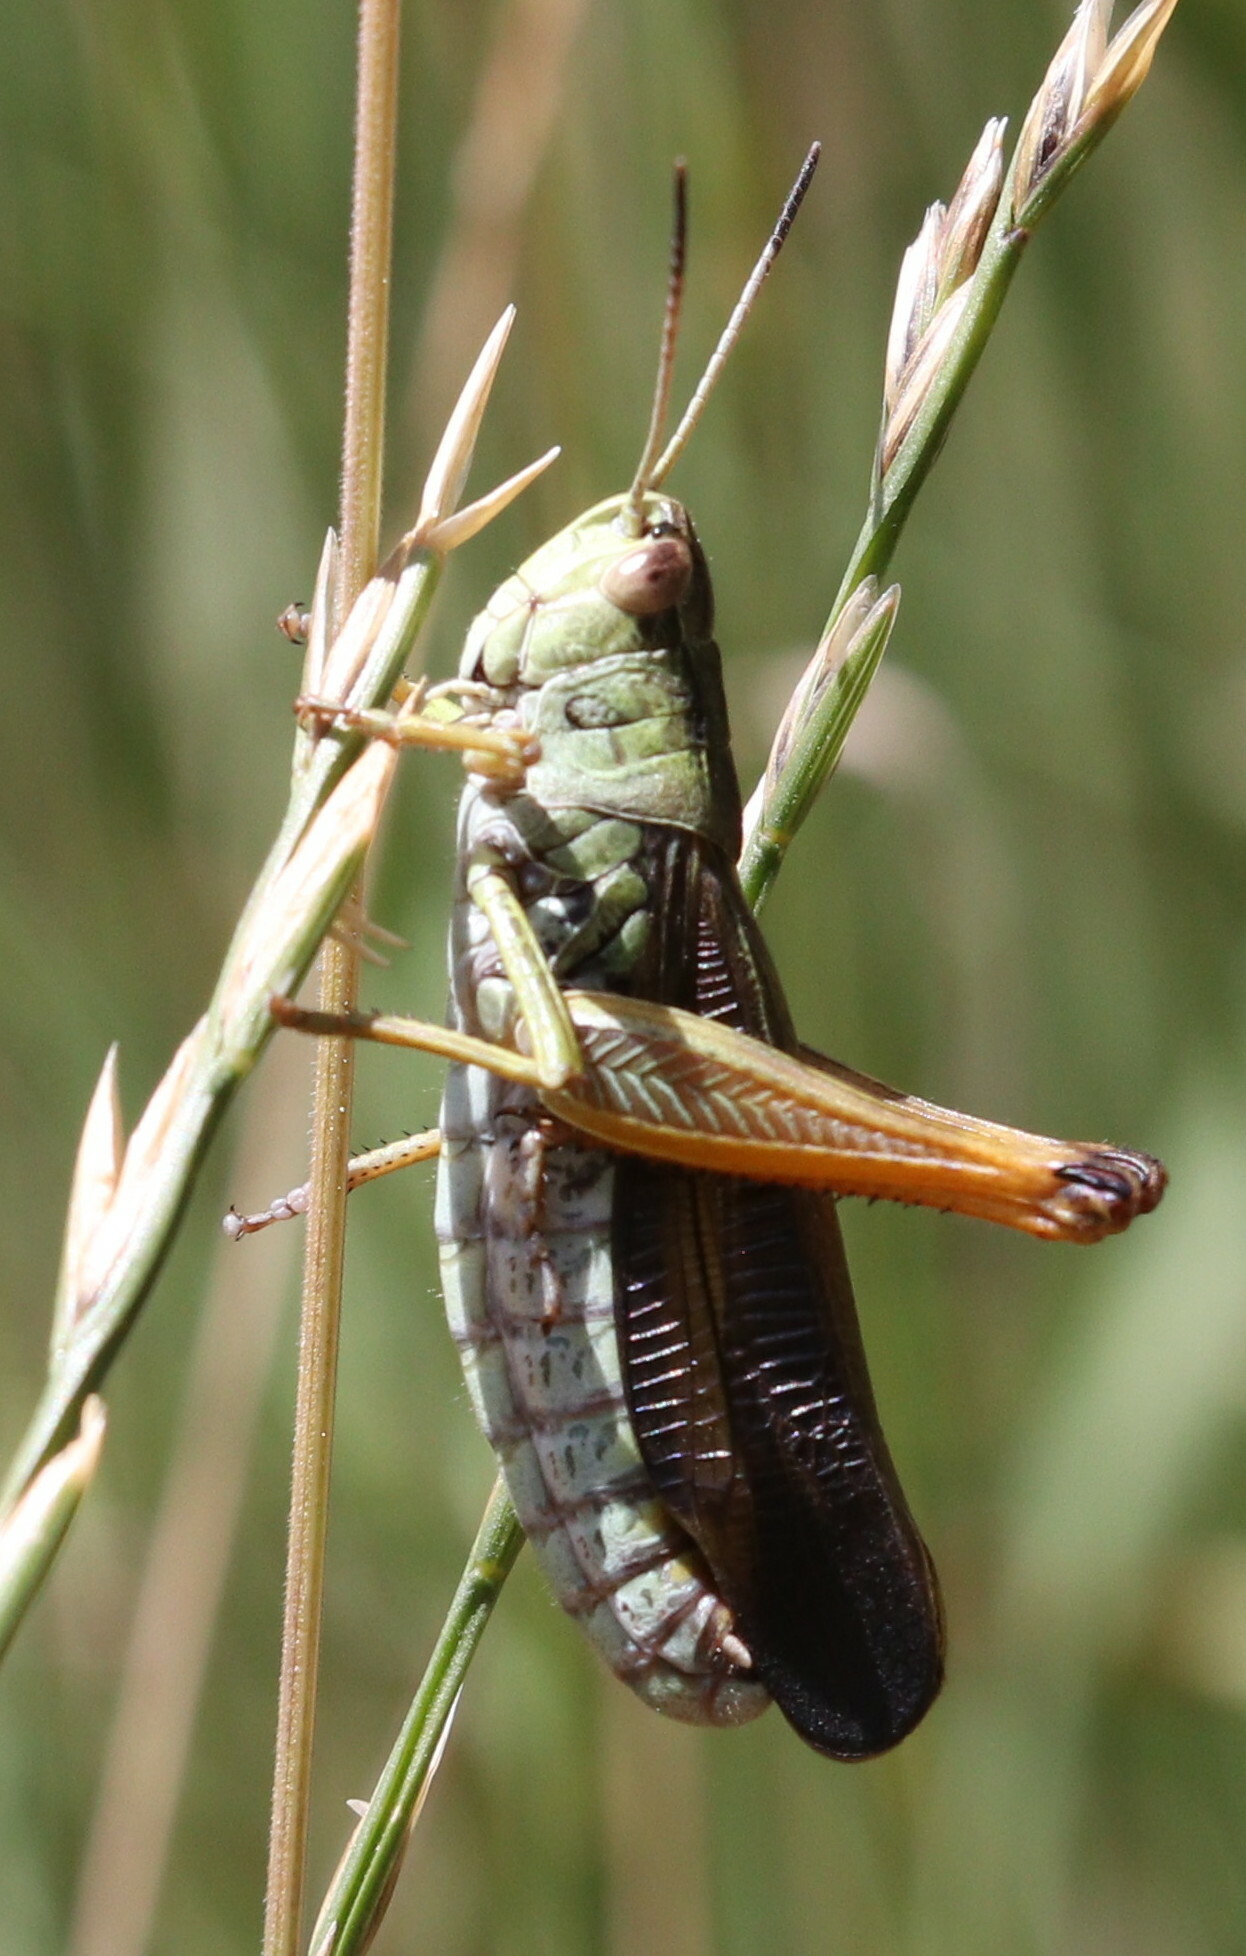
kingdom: Animalia
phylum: Arthropoda
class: Insecta
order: Orthoptera
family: Acrididae
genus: Stauroderus
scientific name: Stauroderus scalaris
